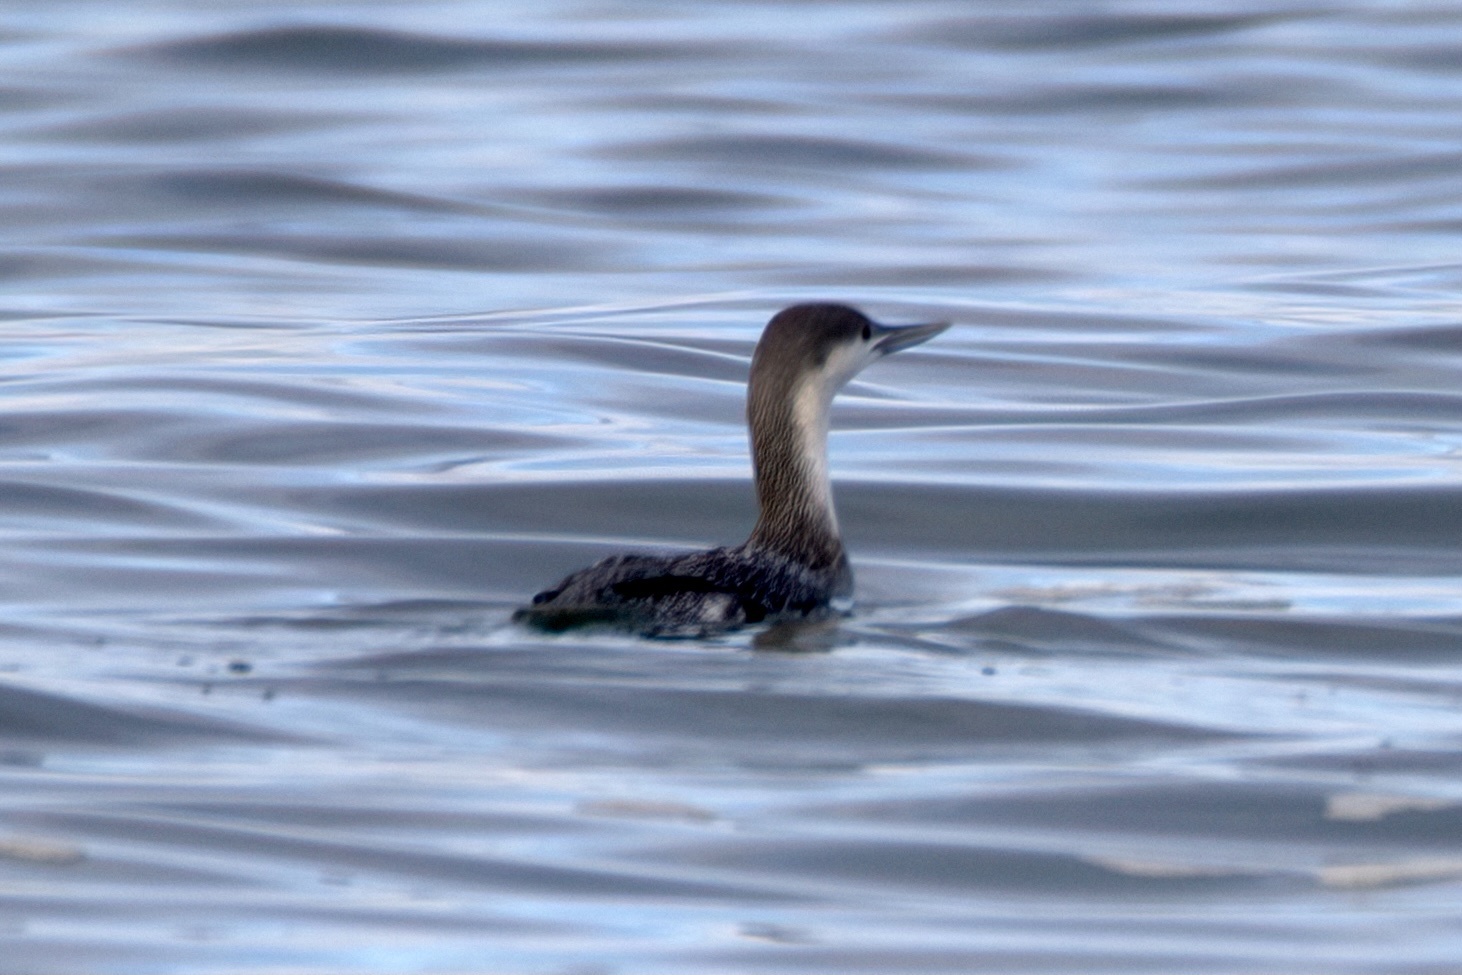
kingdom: Animalia
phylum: Chordata
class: Aves
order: Gaviiformes
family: Gaviidae
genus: Gavia
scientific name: Gavia stellata
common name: Red-throated loon
